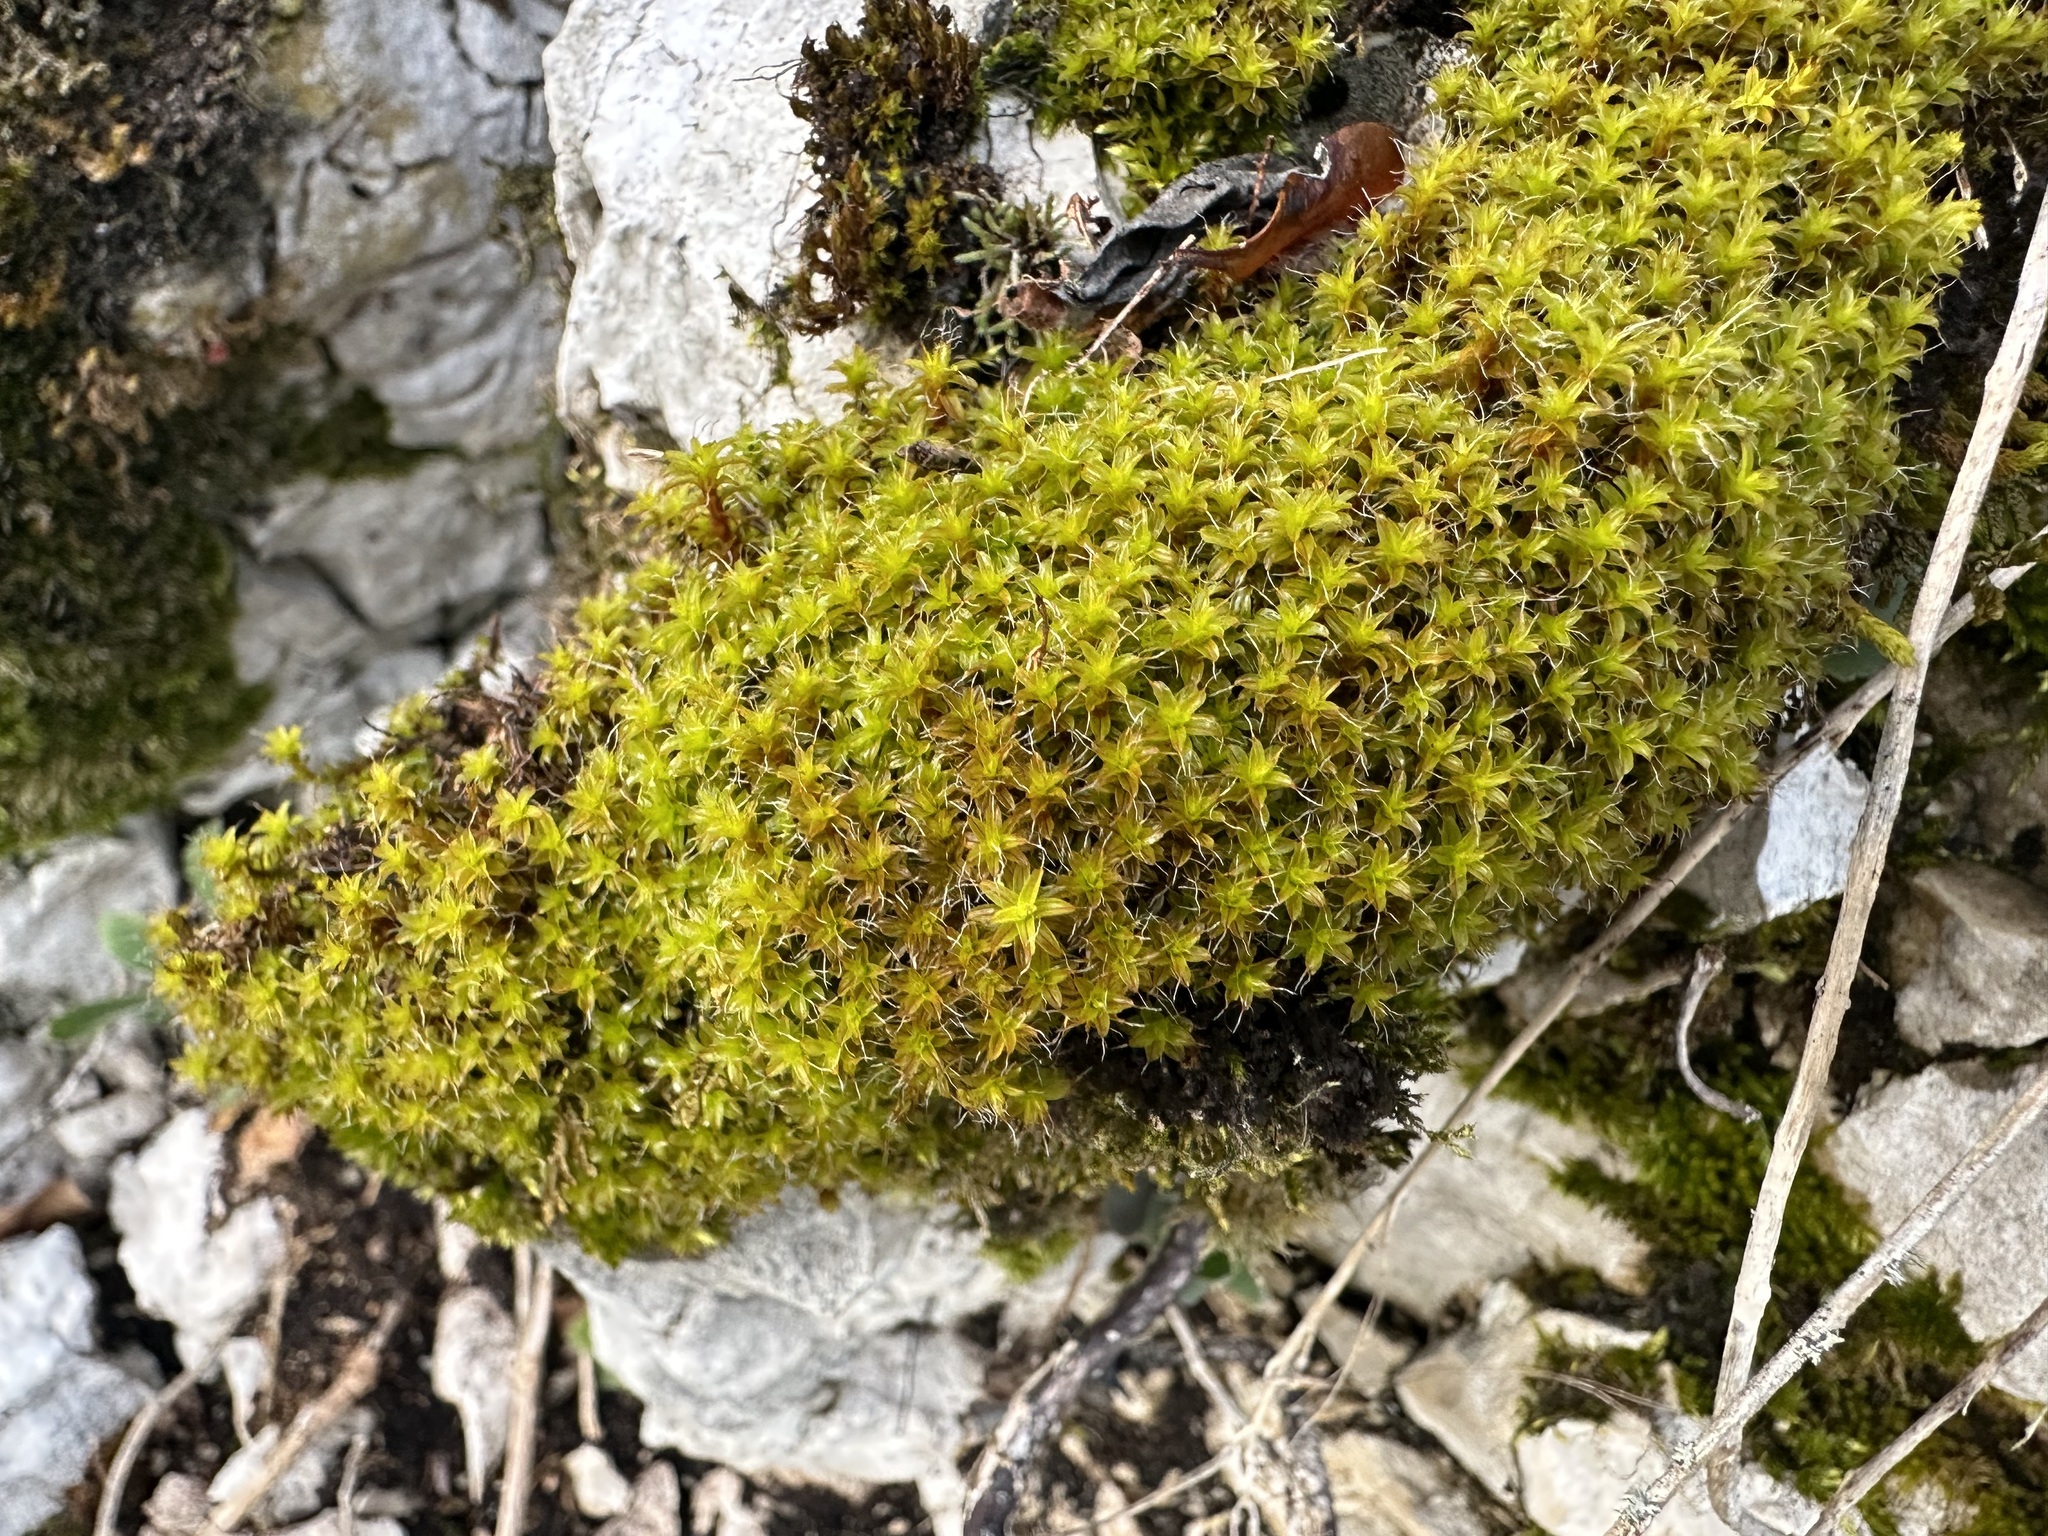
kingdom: Plantae
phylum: Bryophyta
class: Bryopsida
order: Pottiales
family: Pottiaceae
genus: Syntrichia
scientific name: Syntrichia ruralis
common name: Sidewalk screw moss
